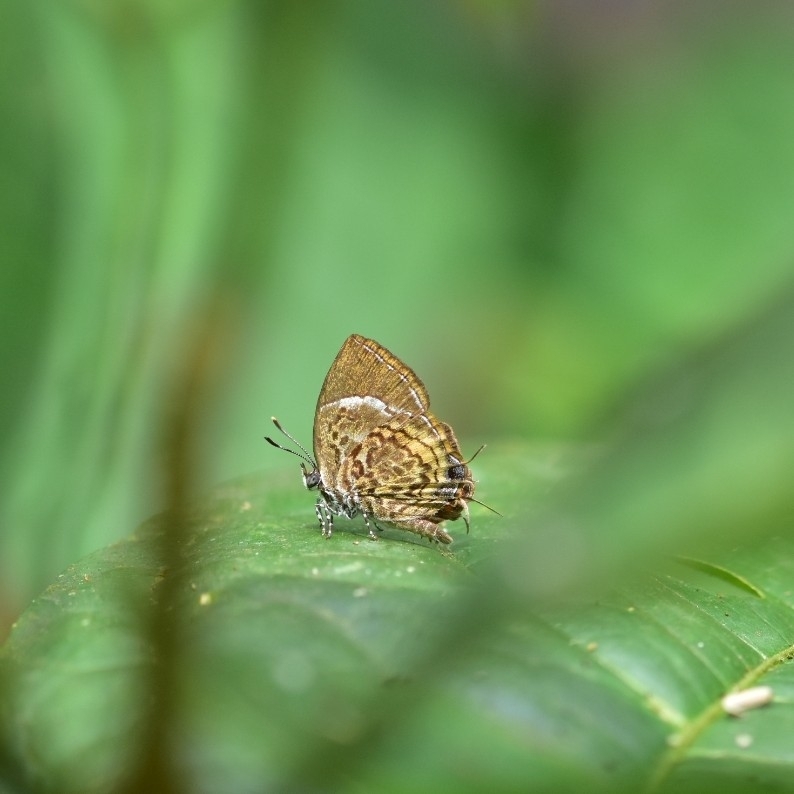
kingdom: Animalia
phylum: Arthropoda
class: Insecta
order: Lepidoptera
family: Lycaenidae
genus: Rathinda
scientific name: Rathinda amor
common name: Monkey puzzle
